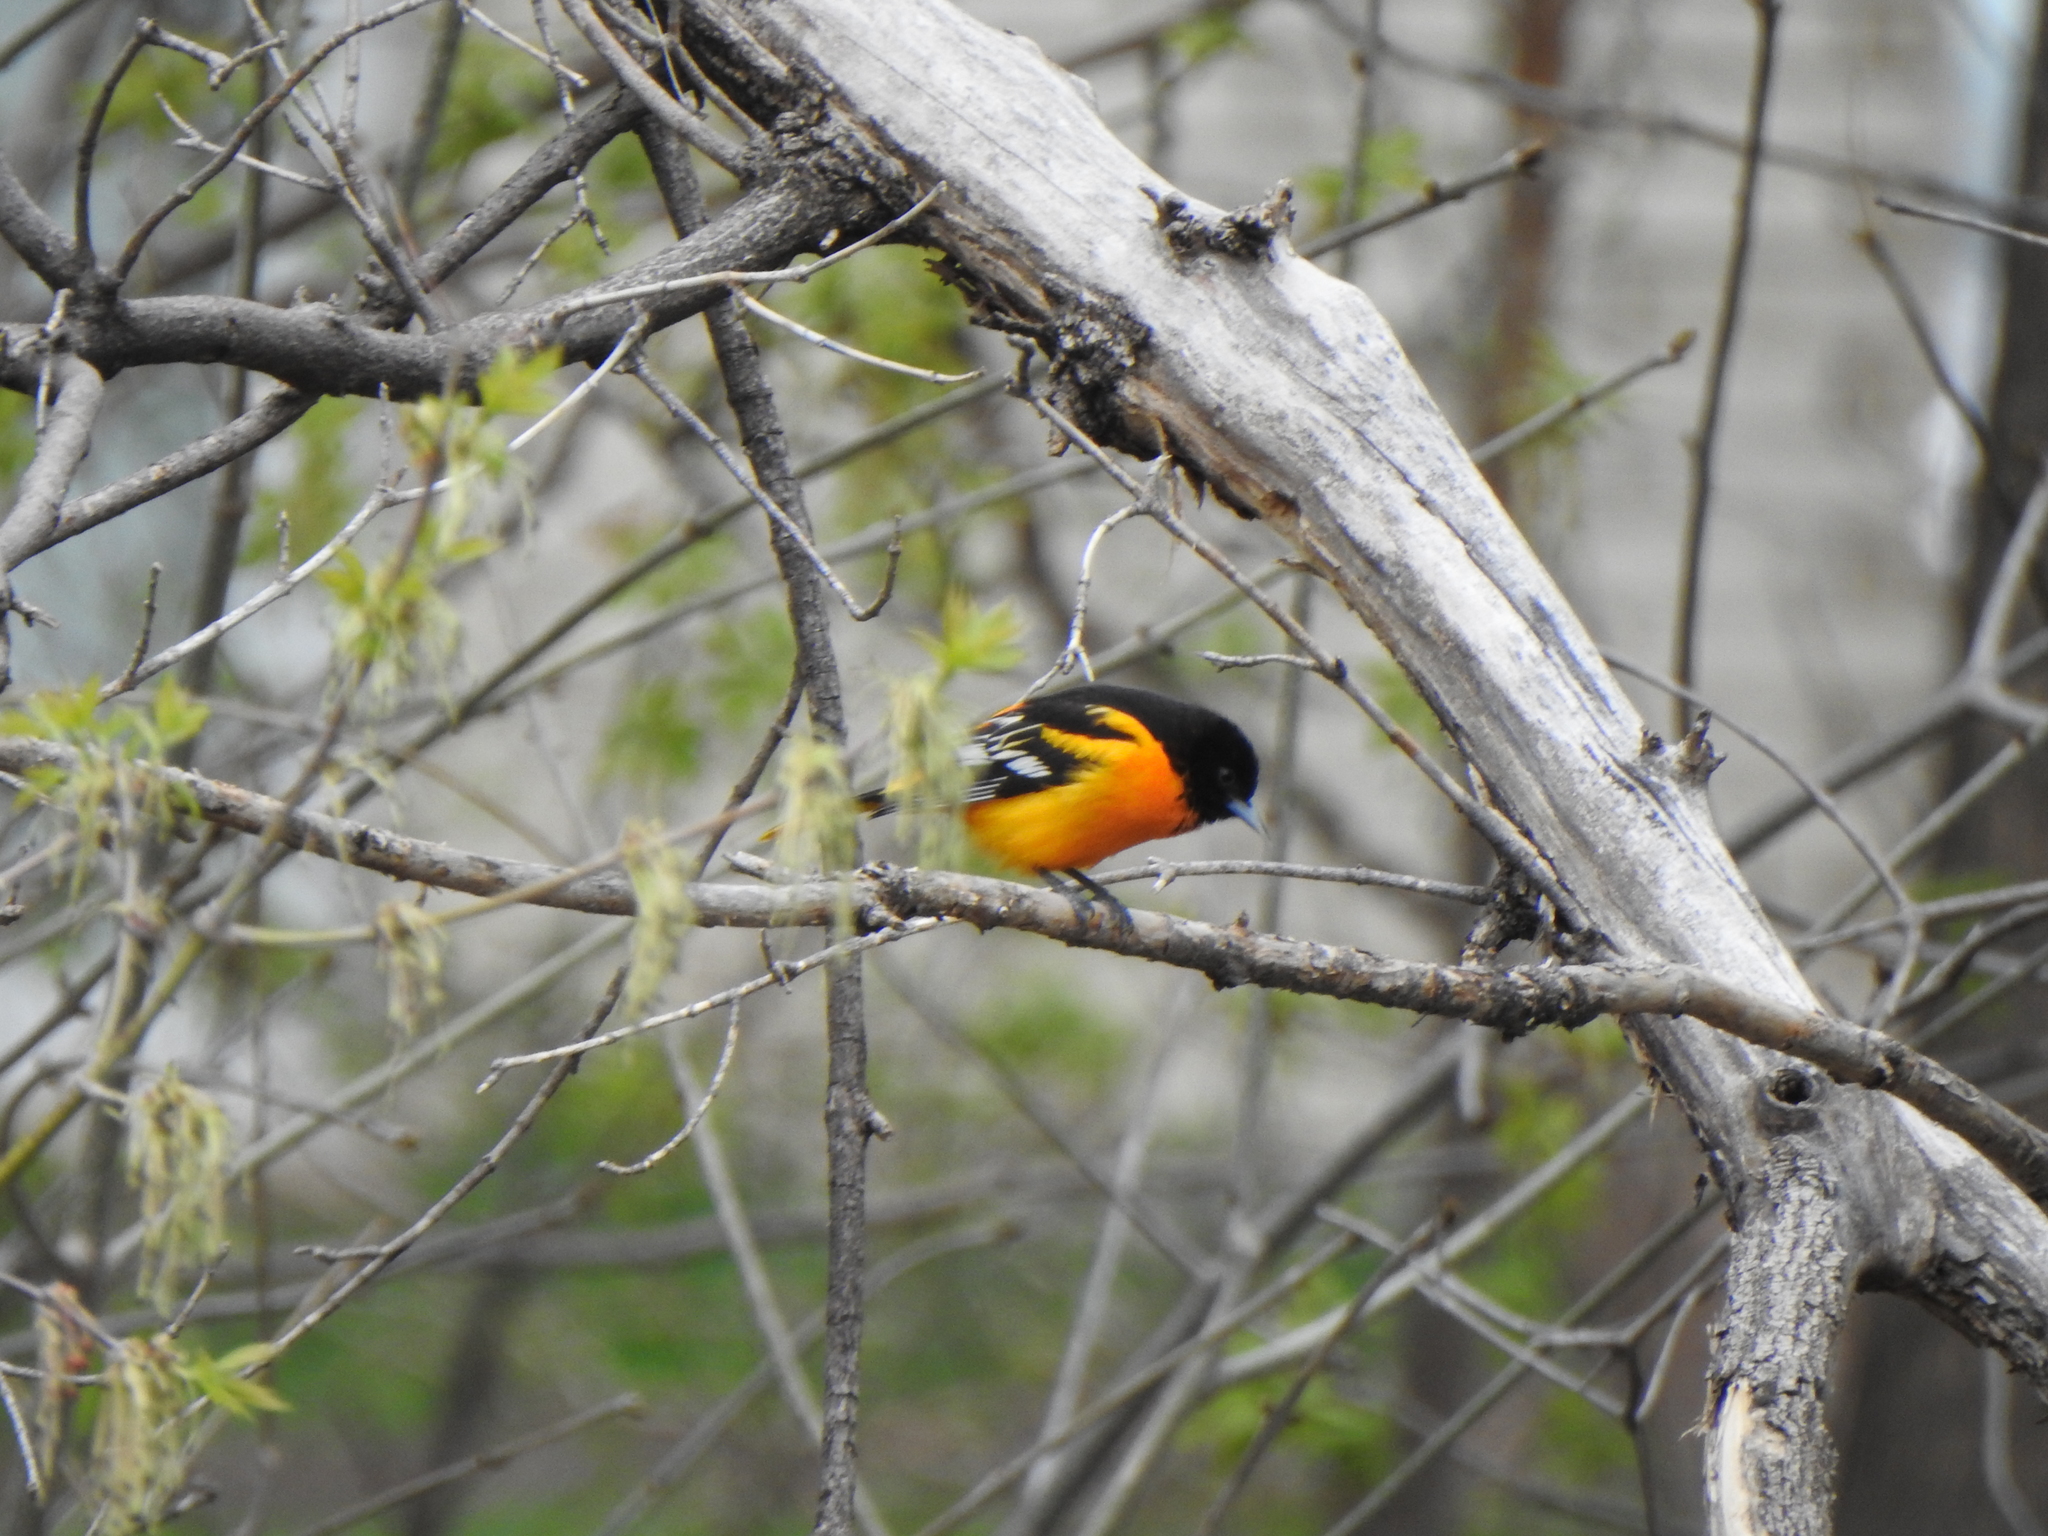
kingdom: Animalia
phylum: Chordata
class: Aves
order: Passeriformes
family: Icteridae
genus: Icterus
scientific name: Icterus galbula
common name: Baltimore oriole
